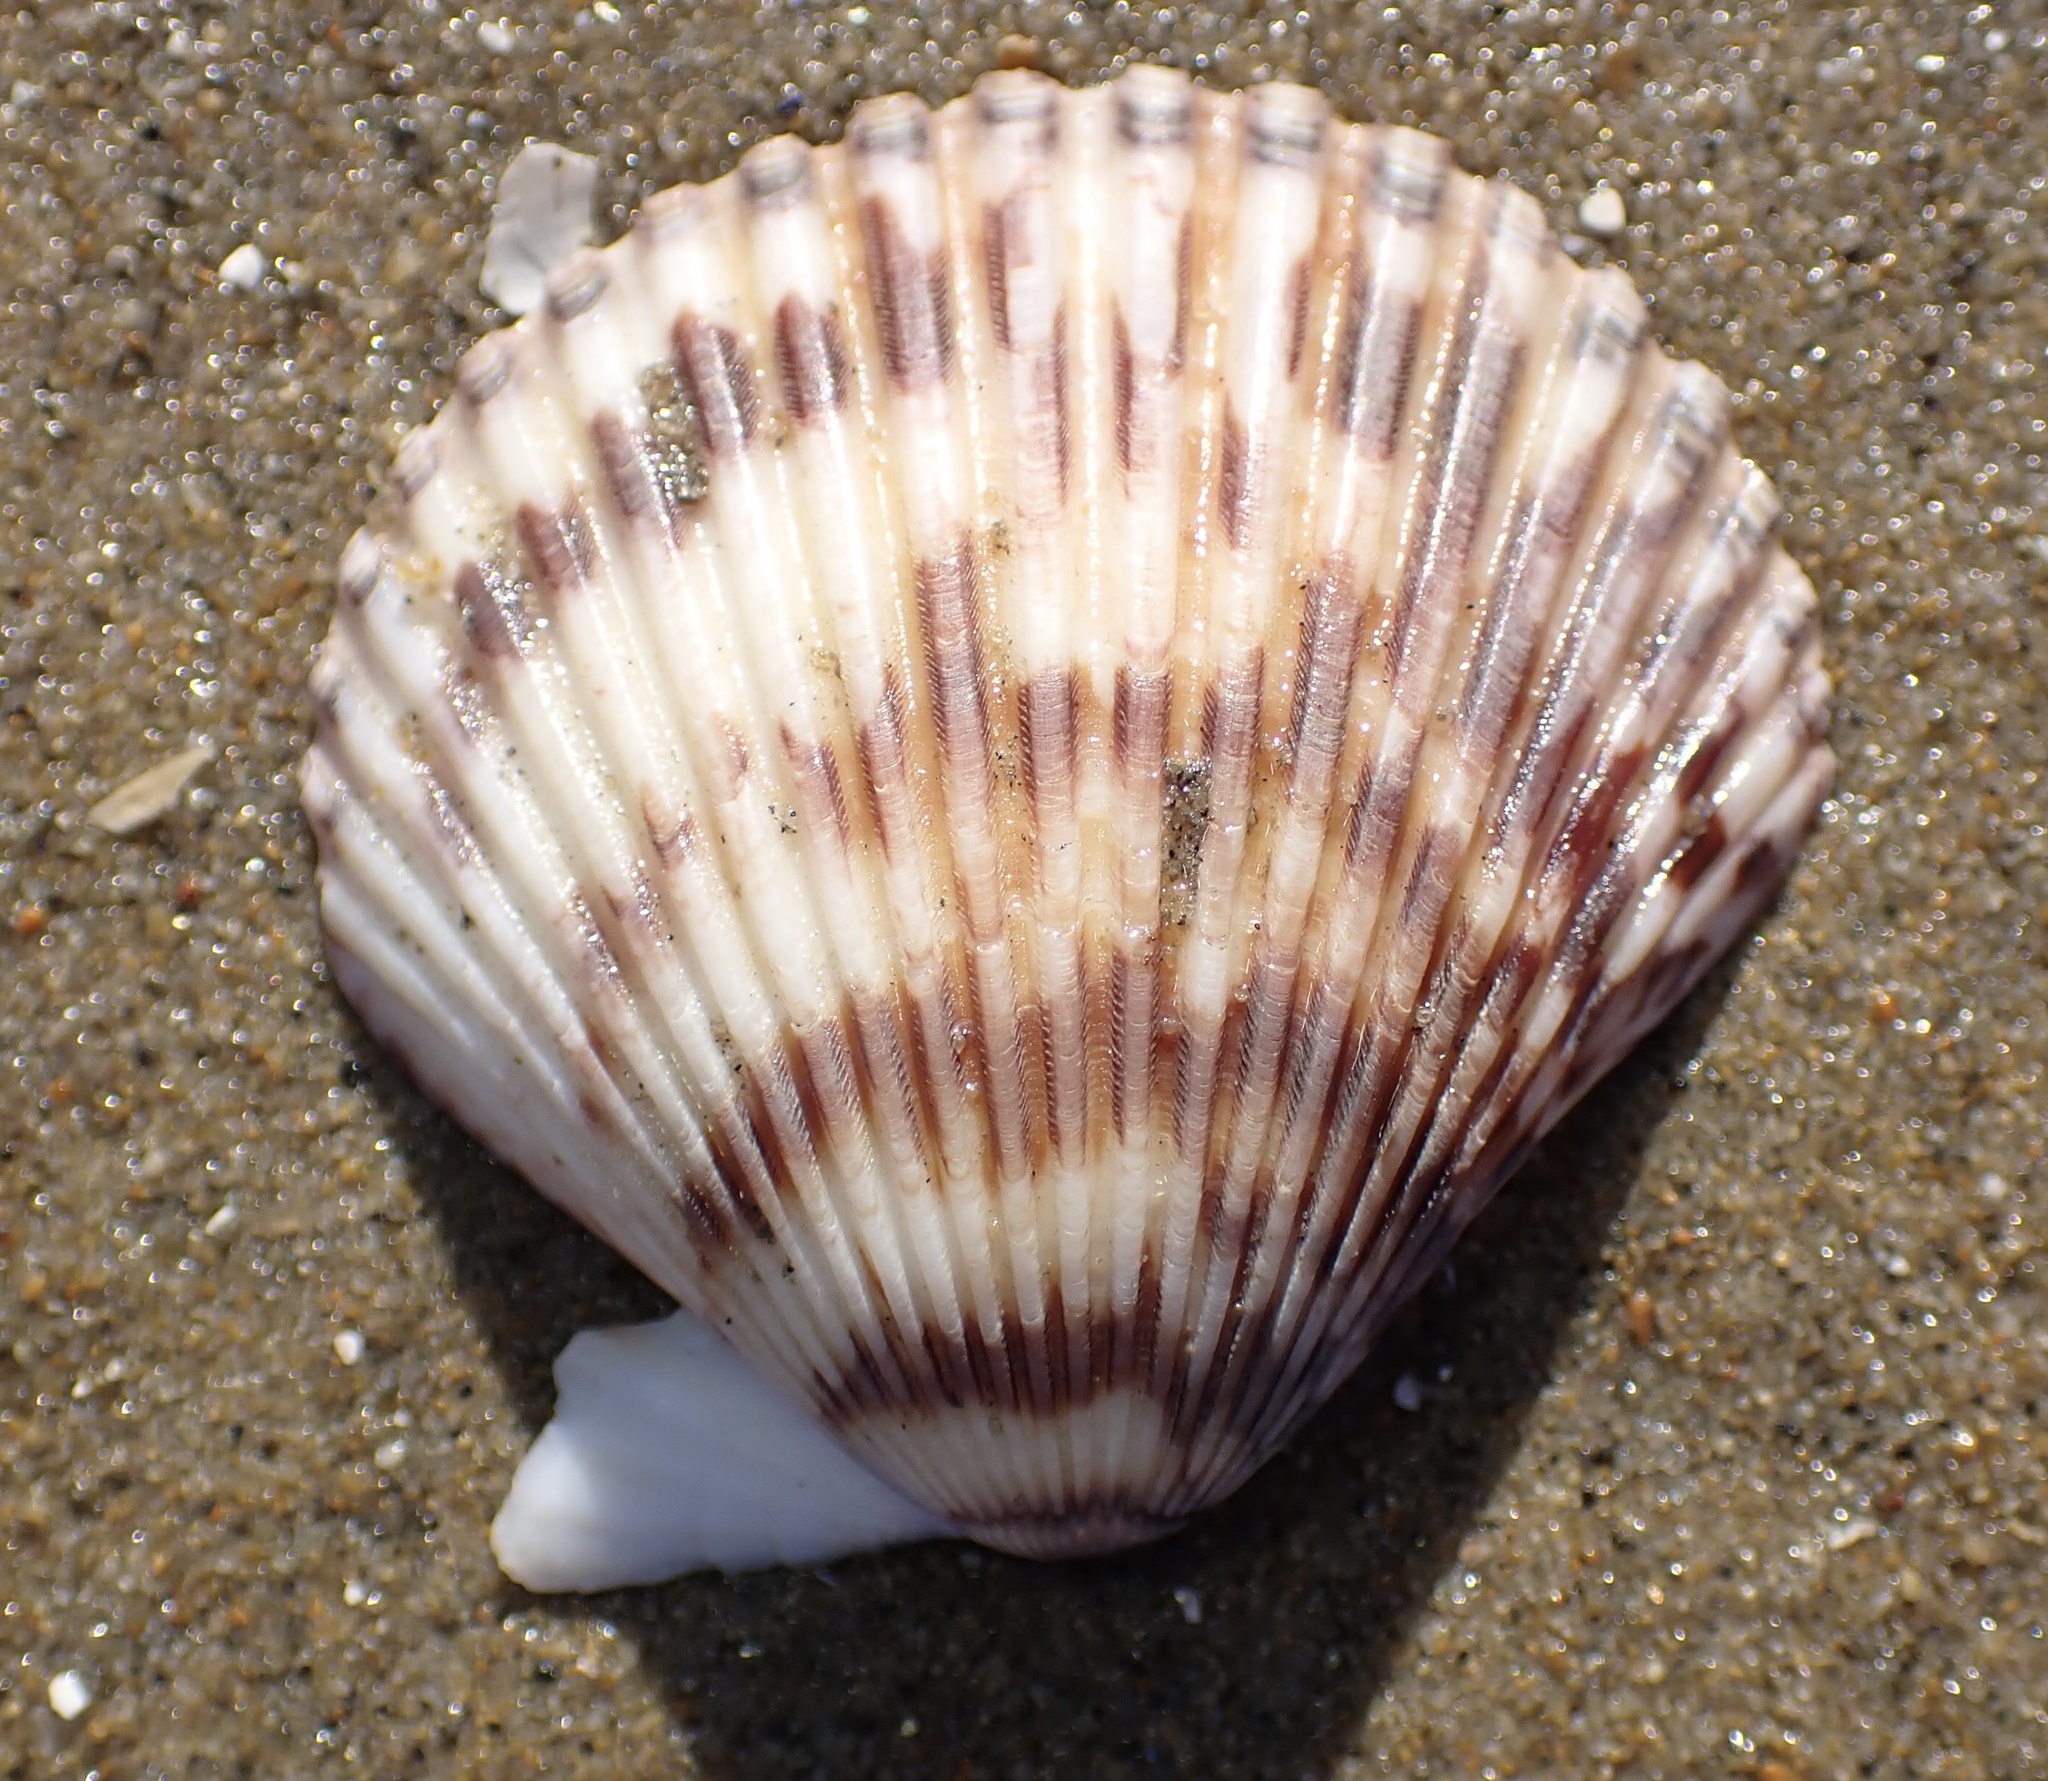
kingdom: Animalia
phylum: Mollusca
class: Bivalvia
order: Pectinida
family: Pectinidae
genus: Argopecten
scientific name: Argopecten ventricosus
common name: Catarina scallop
